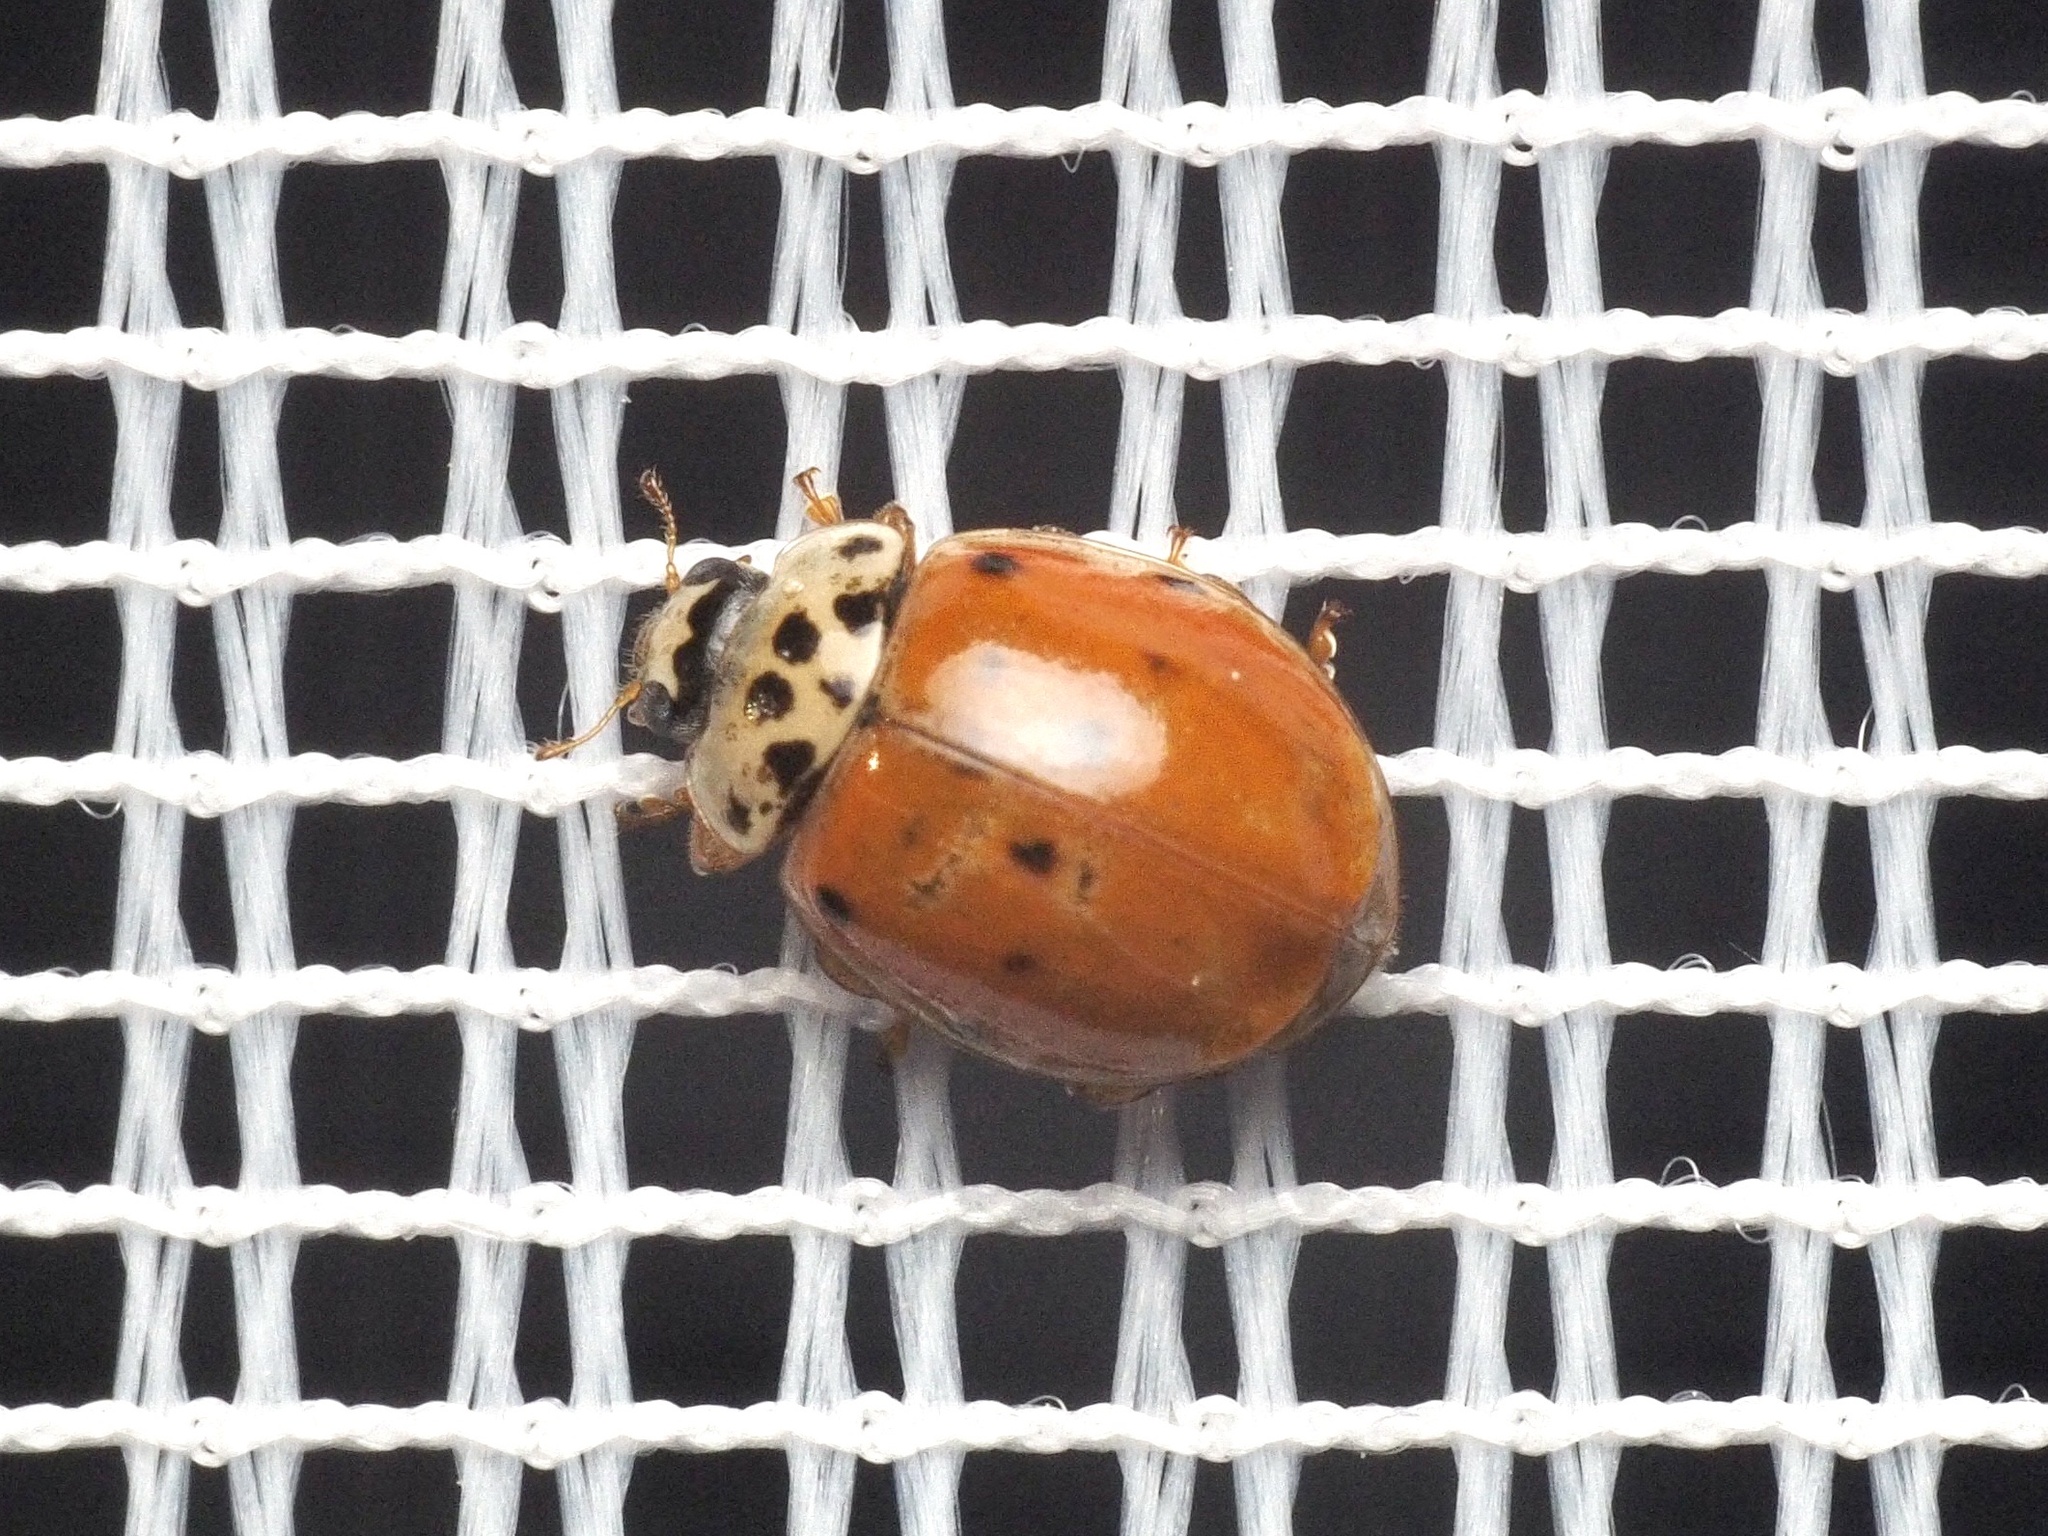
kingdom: Animalia
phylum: Arthropoda
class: Insecta
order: Coleoptera
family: Coccinellidae
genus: Adalia
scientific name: Adalia decempunctata
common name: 10-spot ladybird
